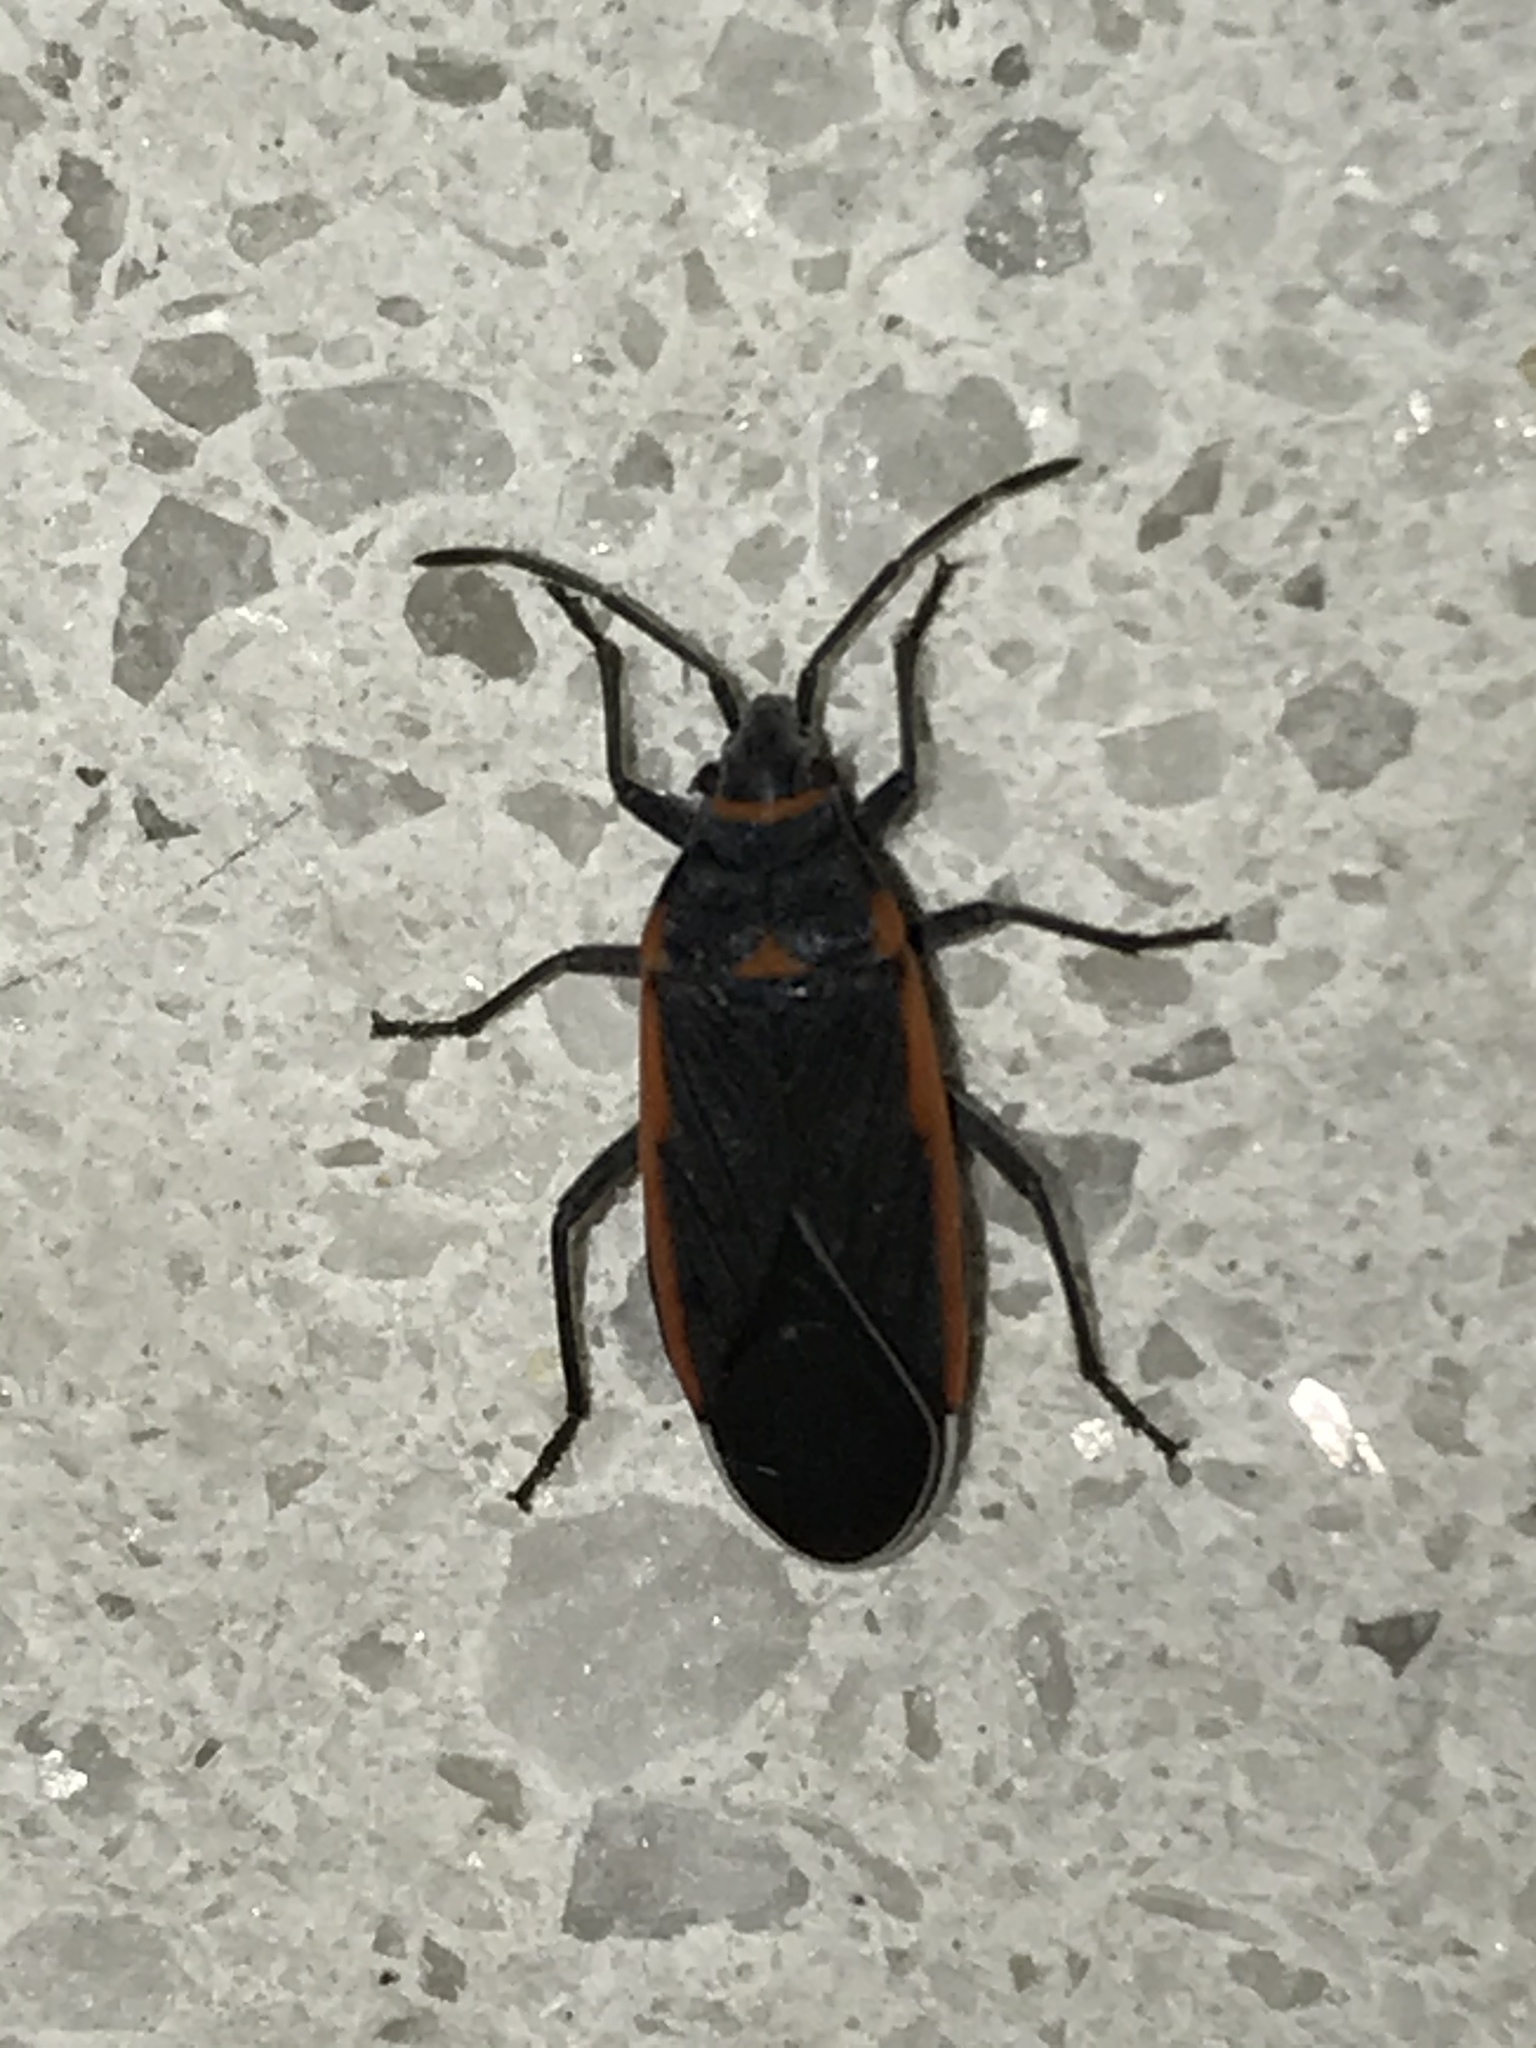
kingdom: Animalia
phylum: Arthropoda
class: Insecta
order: Hemiptera
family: Lygaeidae
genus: Melacoryphus
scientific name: Melacoryphus lateralis
